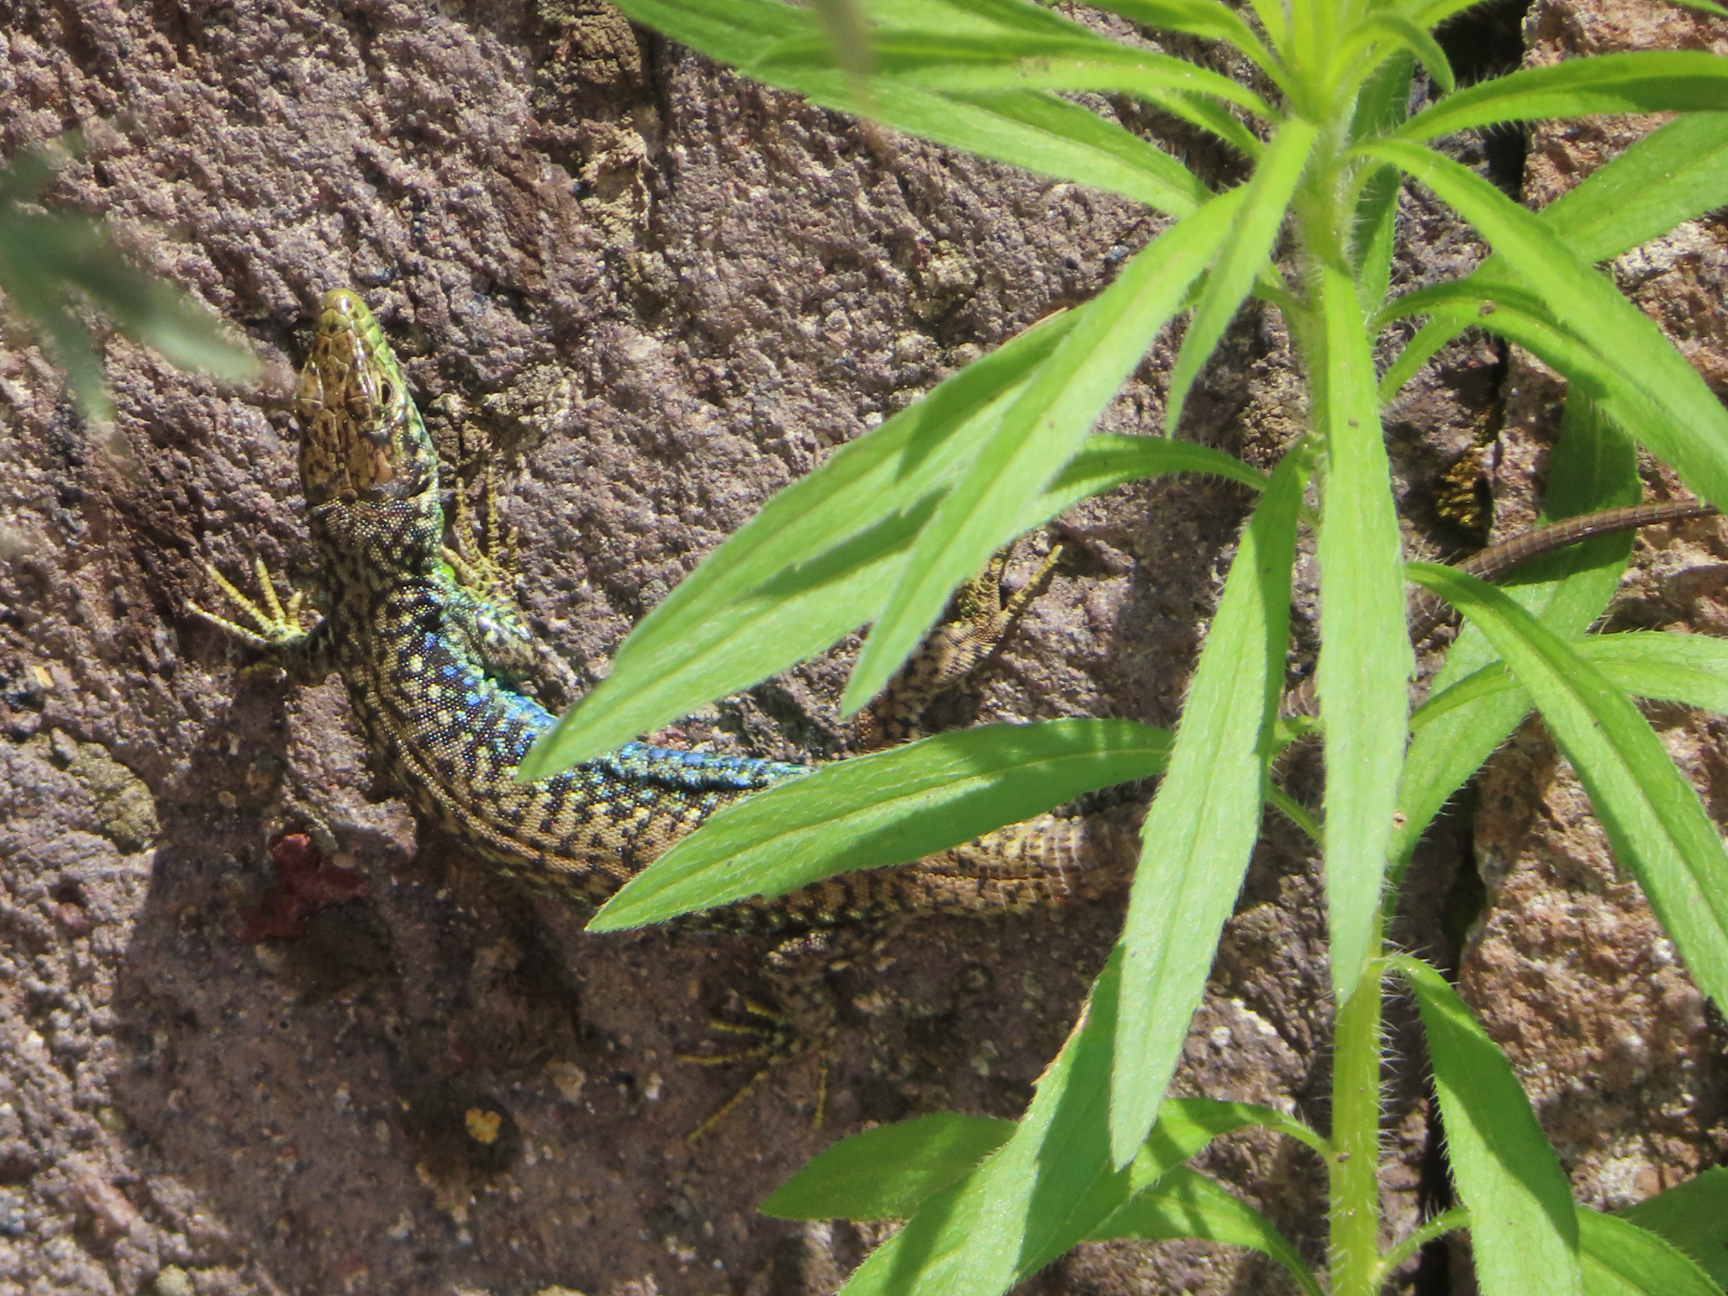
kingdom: Animalia
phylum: Chordata
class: Squamata
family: Lacertidae
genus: Darevskia
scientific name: Darevskia
